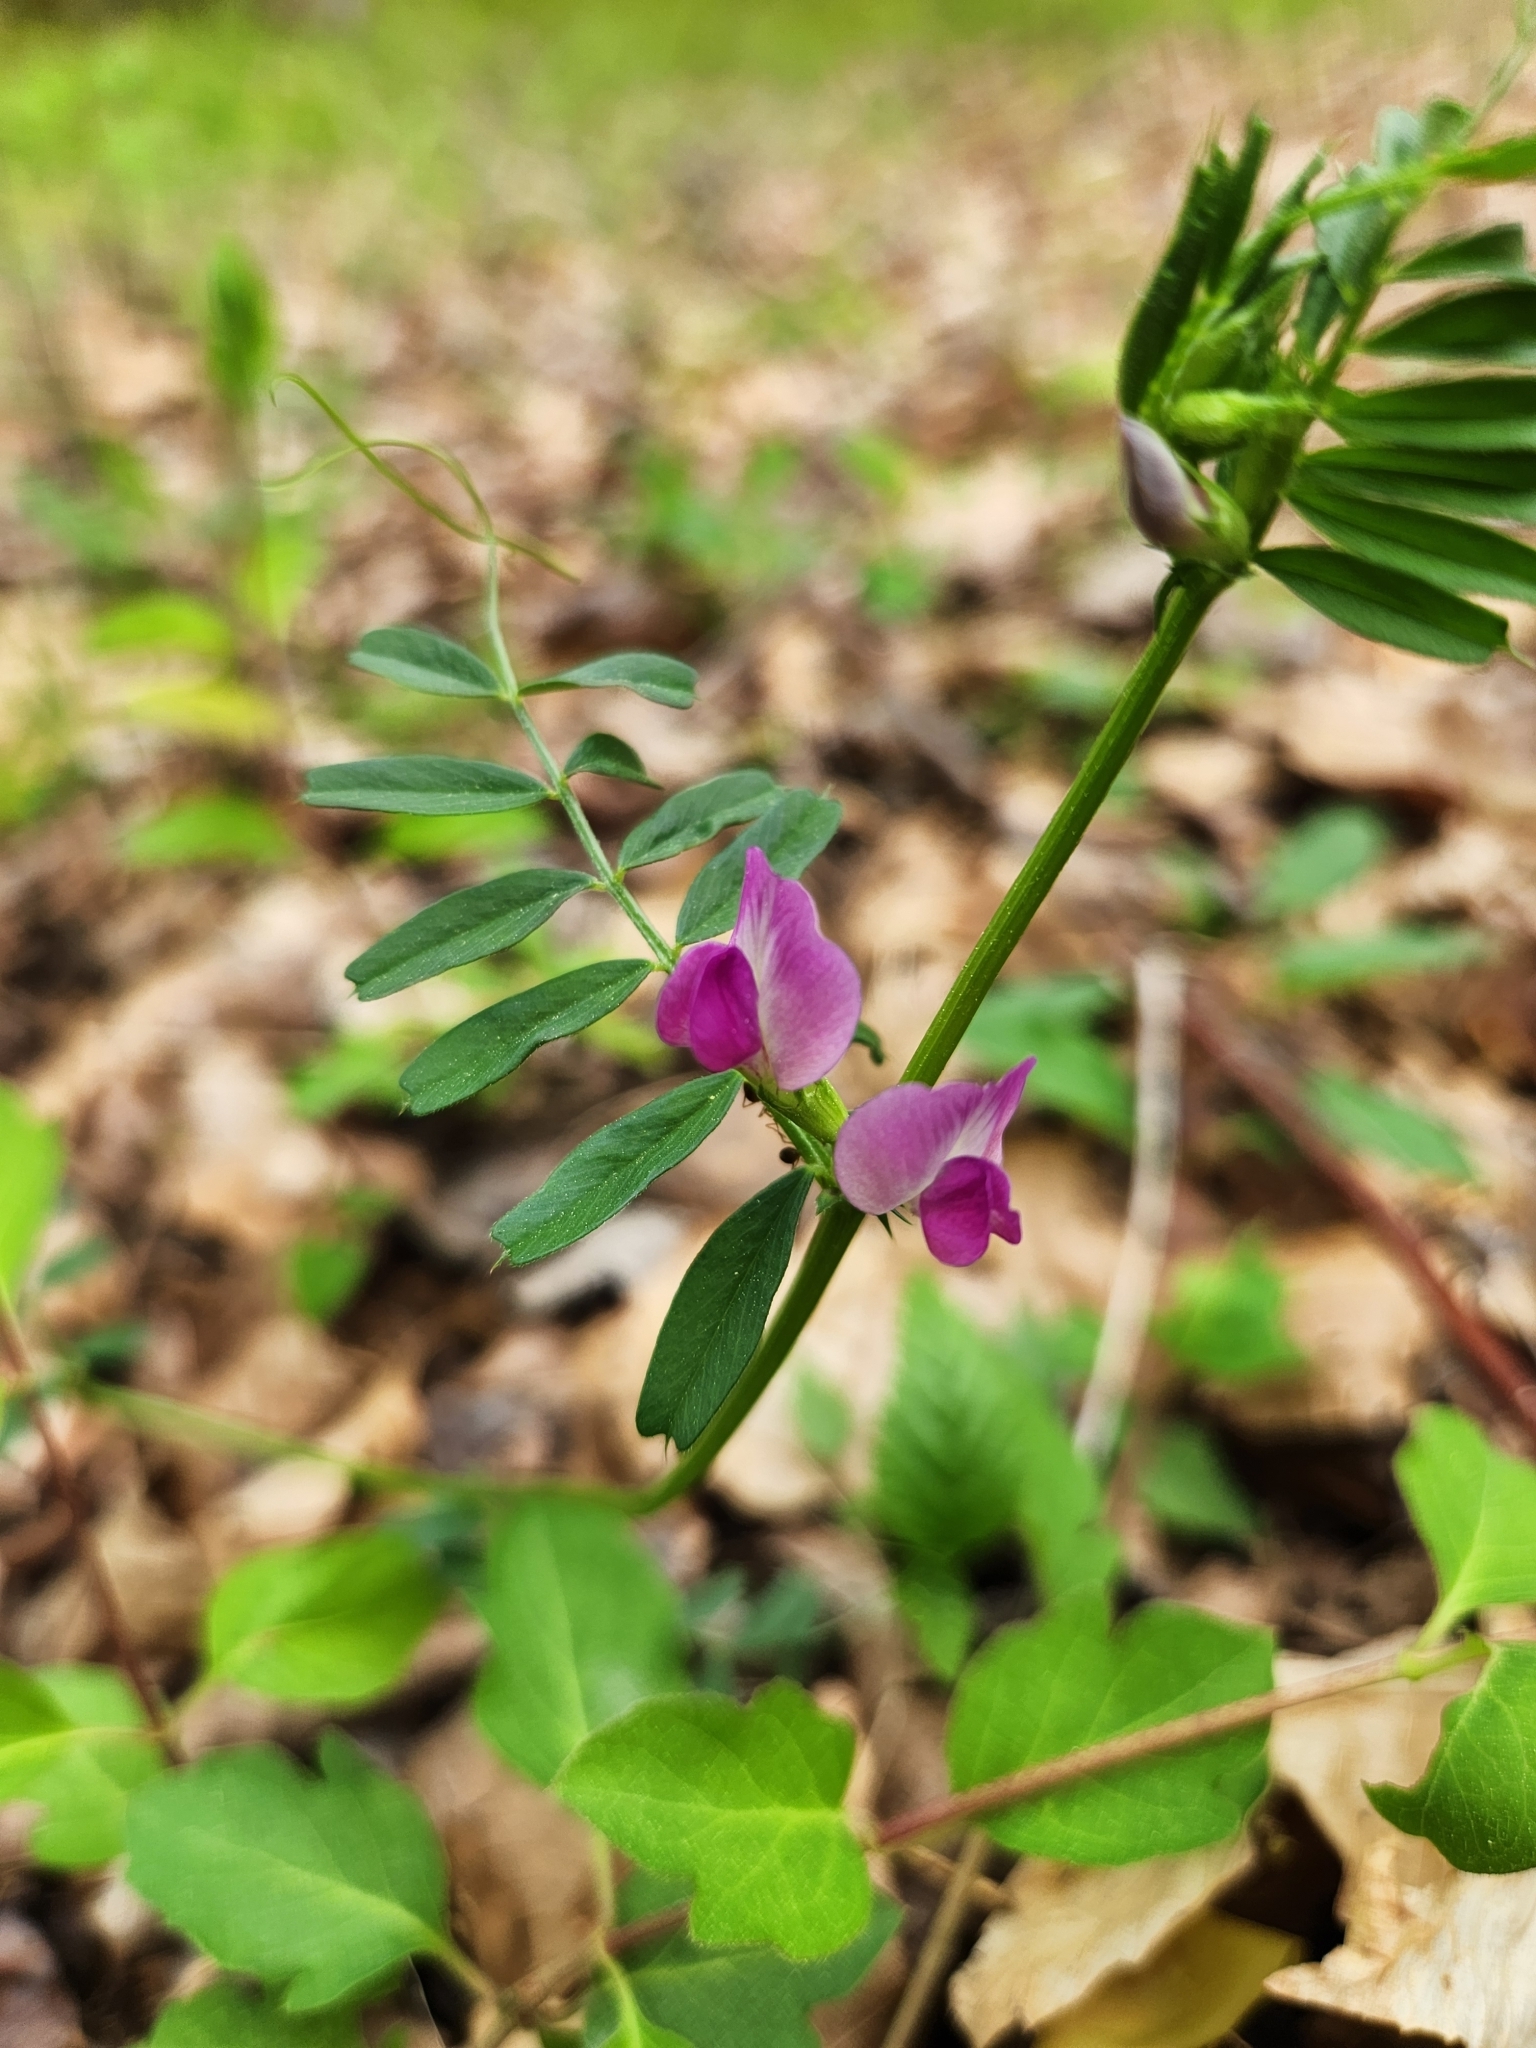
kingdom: Plantae
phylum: Tracheophyta
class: Magnoliopsida
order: Fabales
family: Fabaceae
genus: Vicia
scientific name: Vicia sativa
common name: Garden vetch
